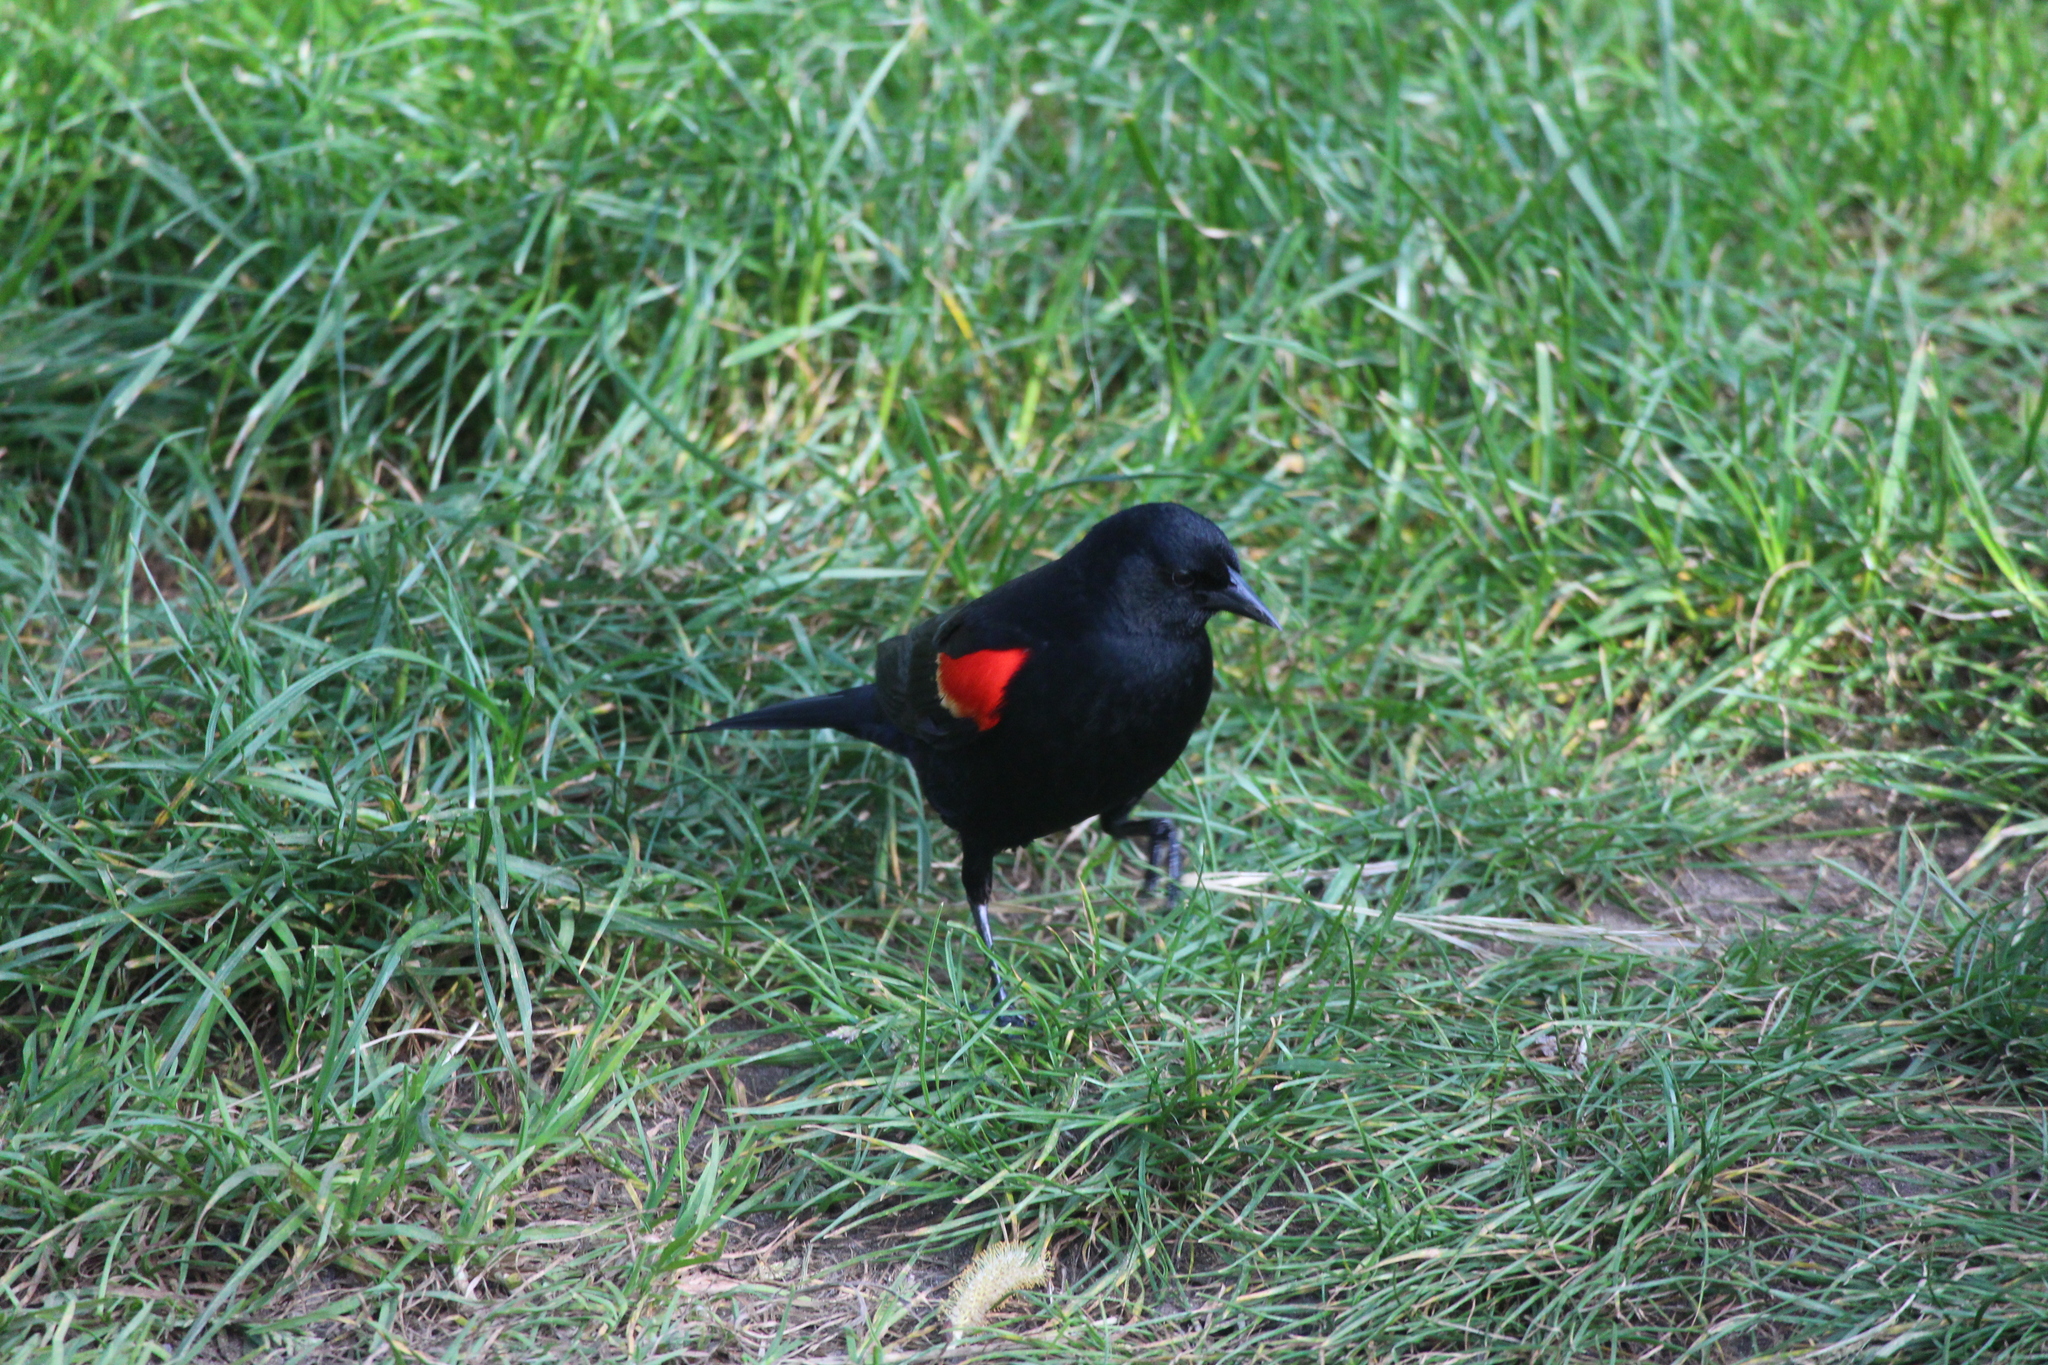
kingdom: Animalia
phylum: Chordata
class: Aves
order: Passeriformes
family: Icteridae
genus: Agelaius
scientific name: Agelaius phoeniceus
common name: Red-winged blackbird
